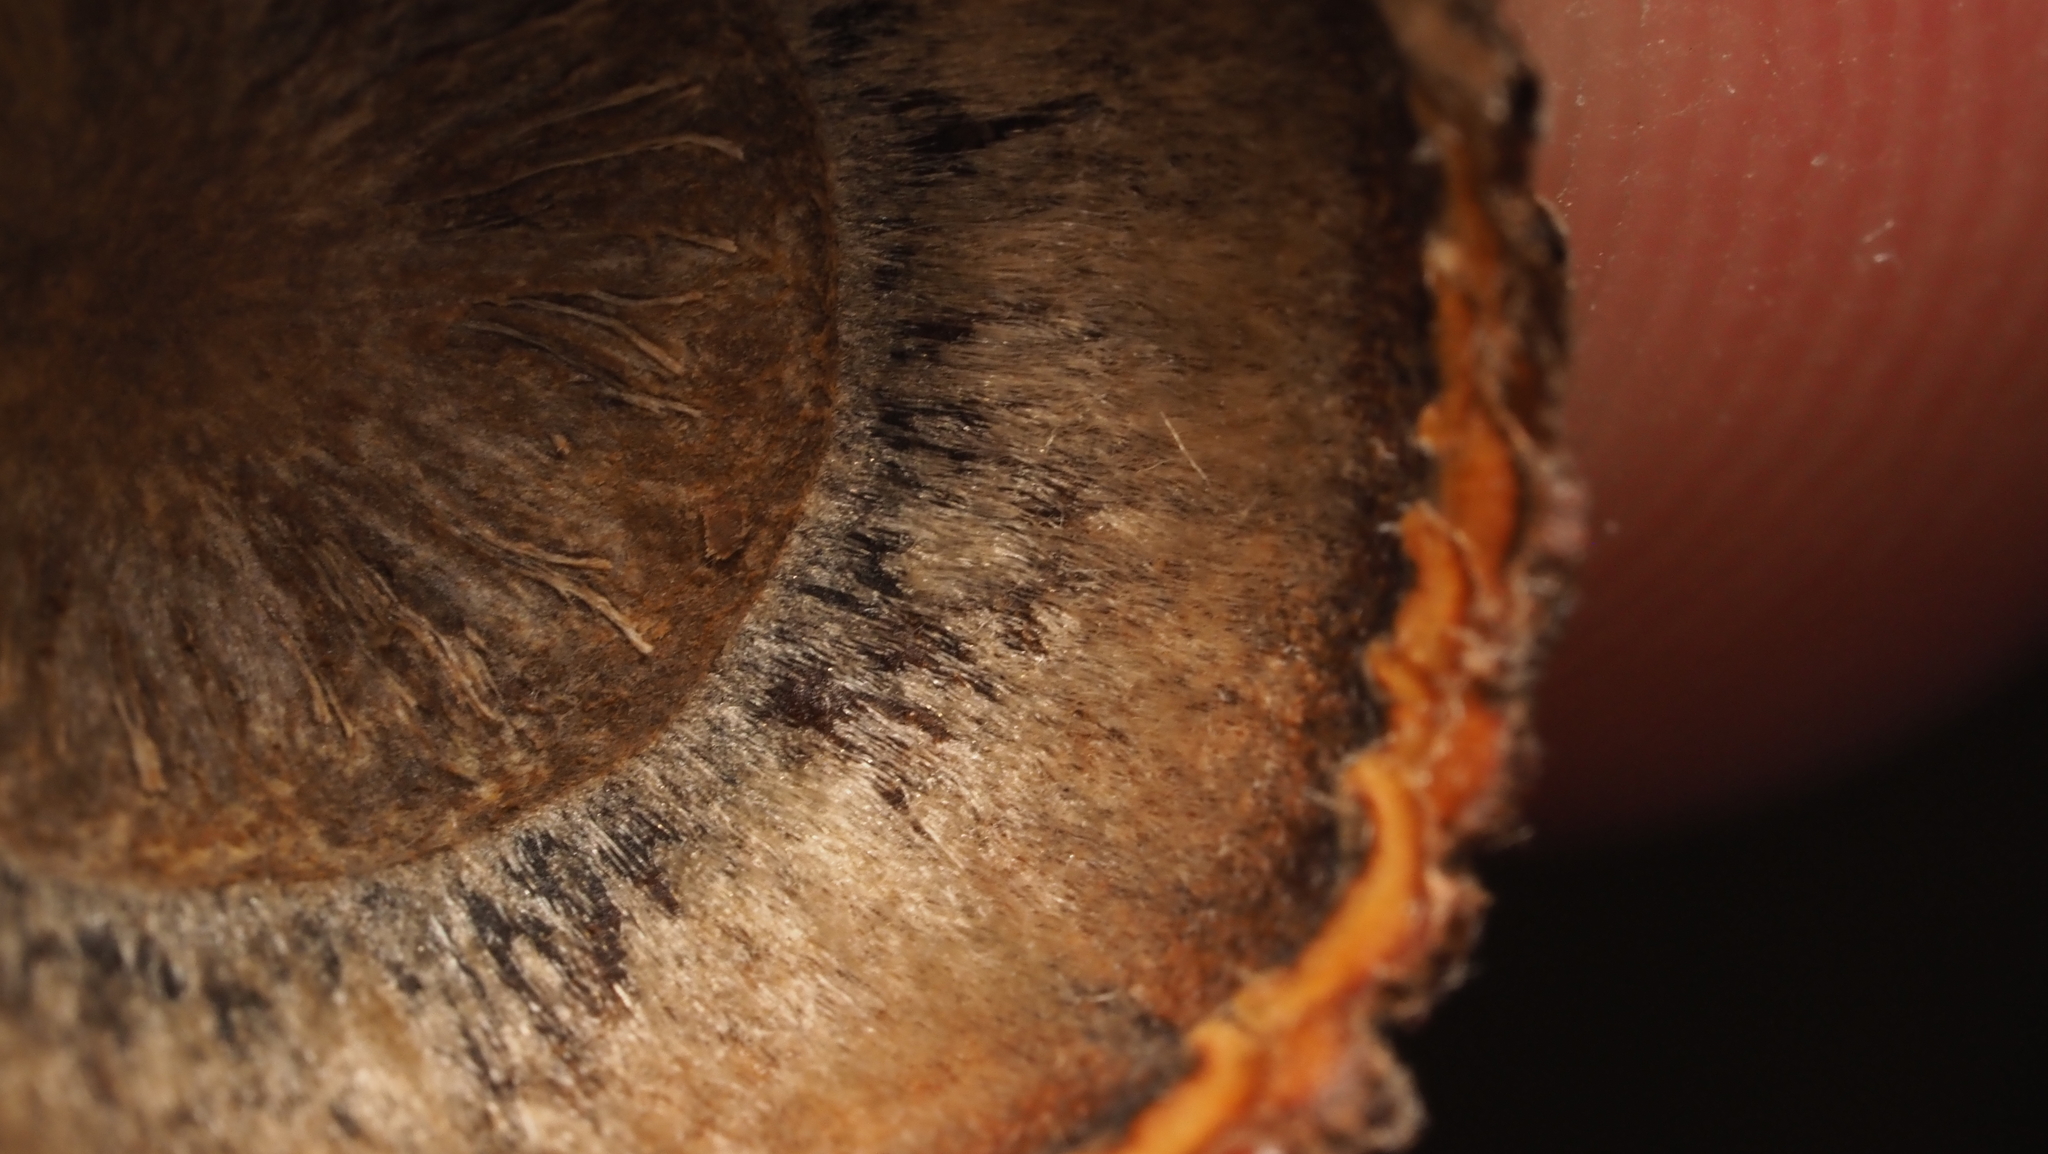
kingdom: Plantae
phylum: Tracheophyta
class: Magnoliopsida
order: Fagales
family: Fagaceae
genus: Quercus
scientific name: Quercus velutina
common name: Black oak
